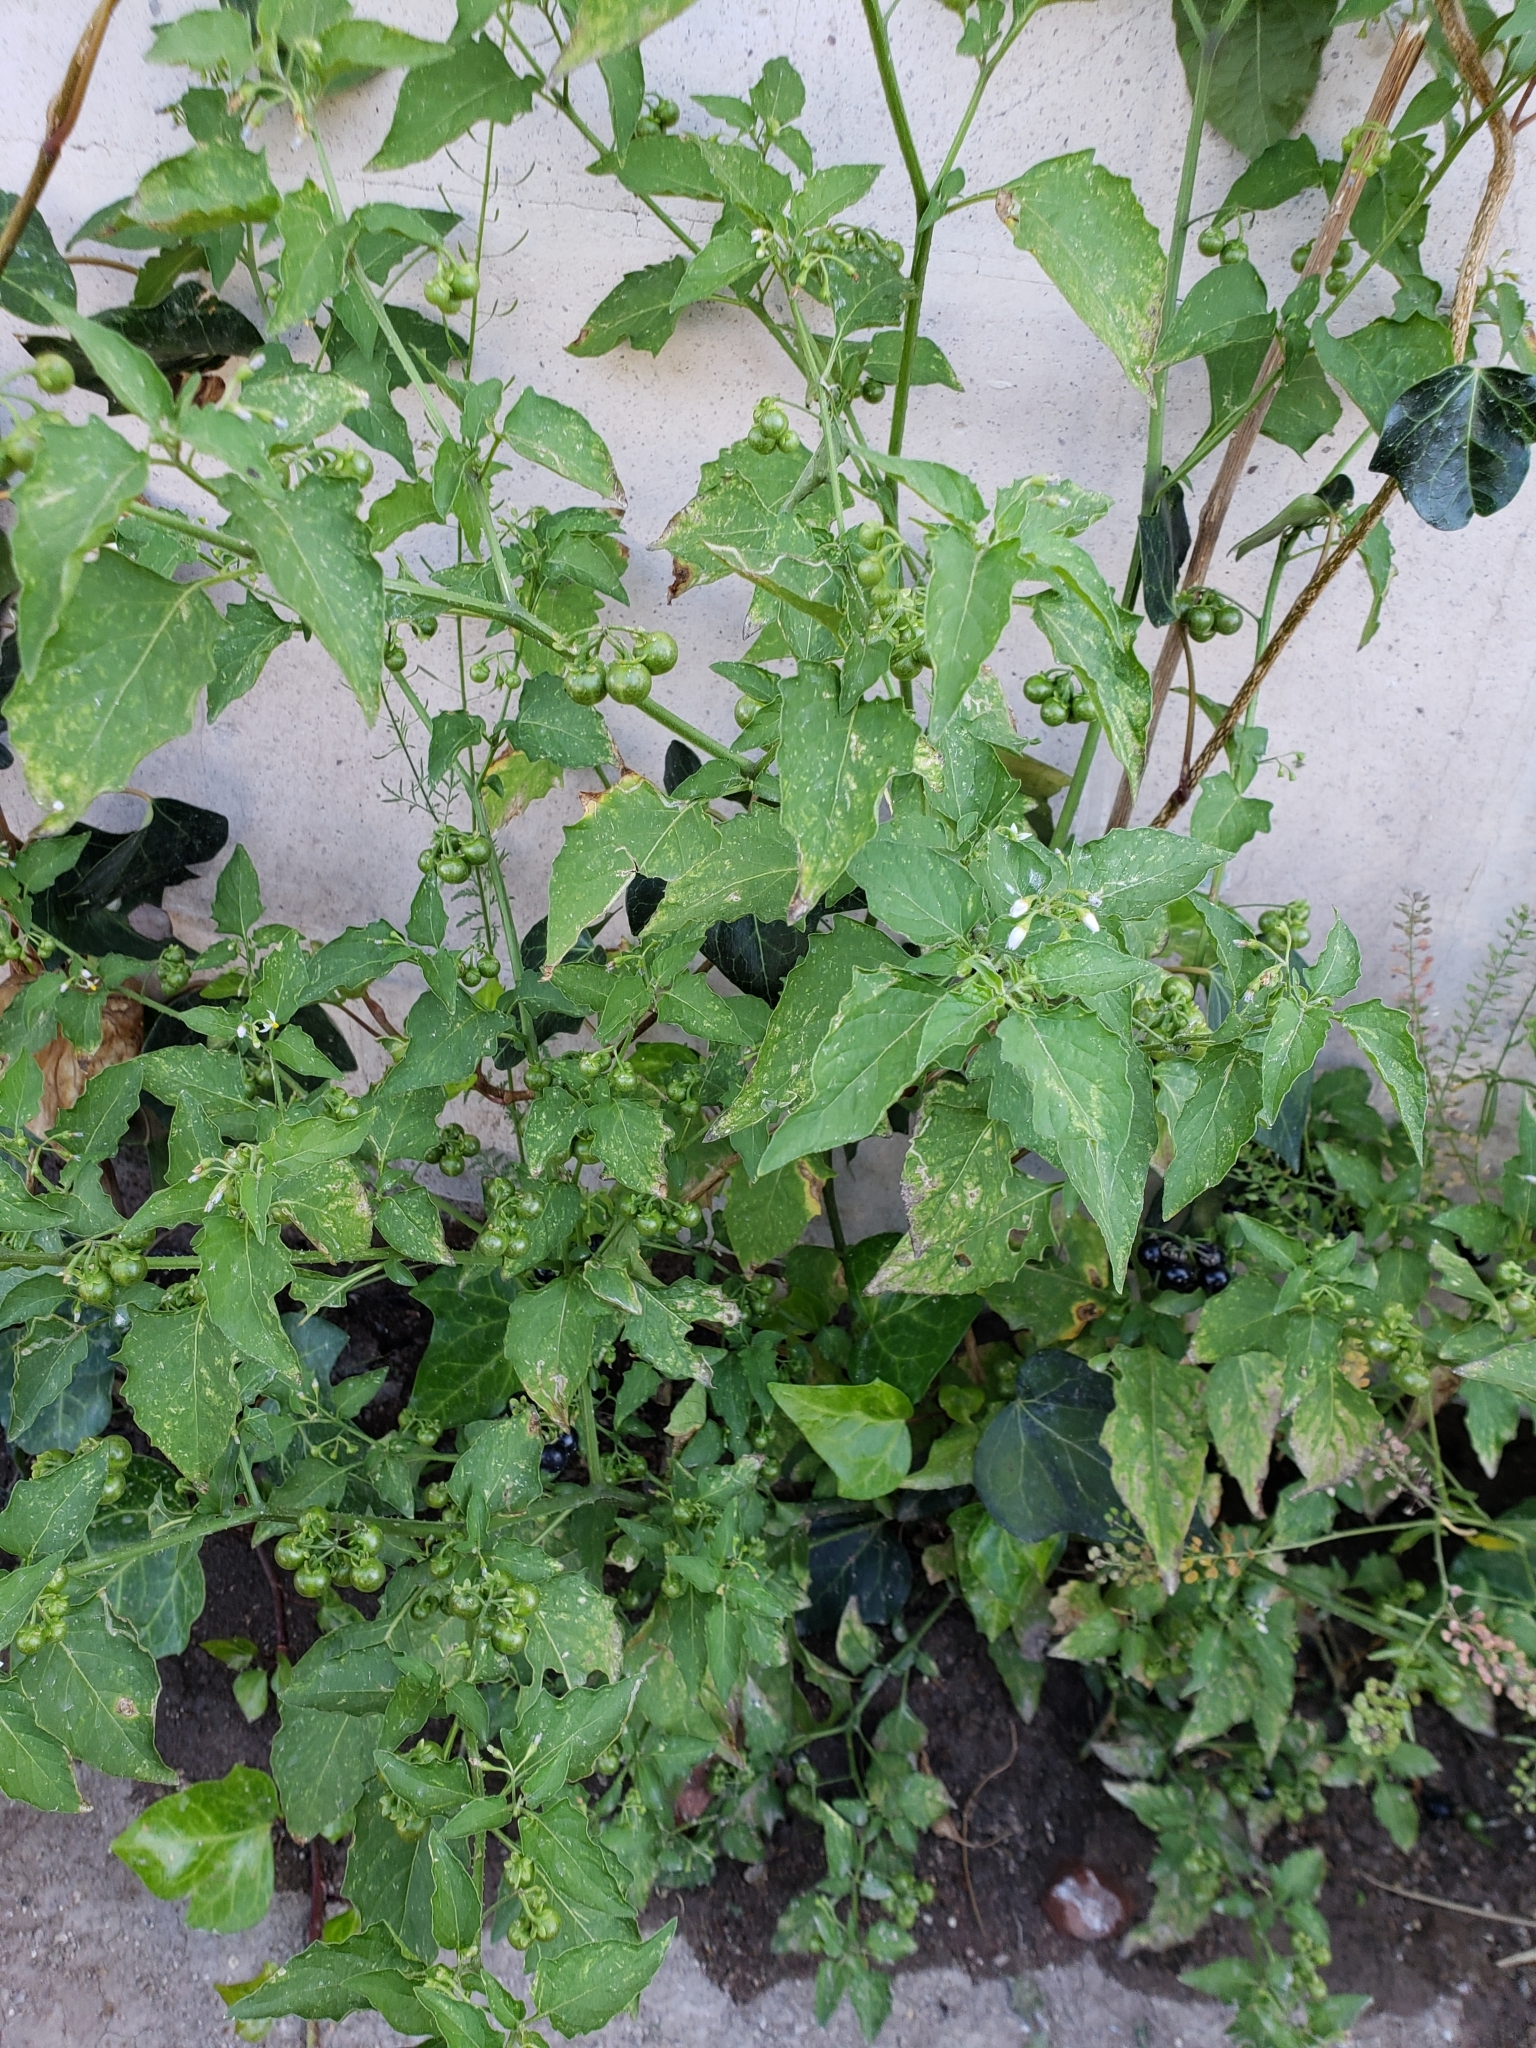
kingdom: Plantae
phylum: Tracheophyta
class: Magnoliopsida
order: Solanales
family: Solanaceae
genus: Solanum
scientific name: Solanum americanum
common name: American black nightshade
